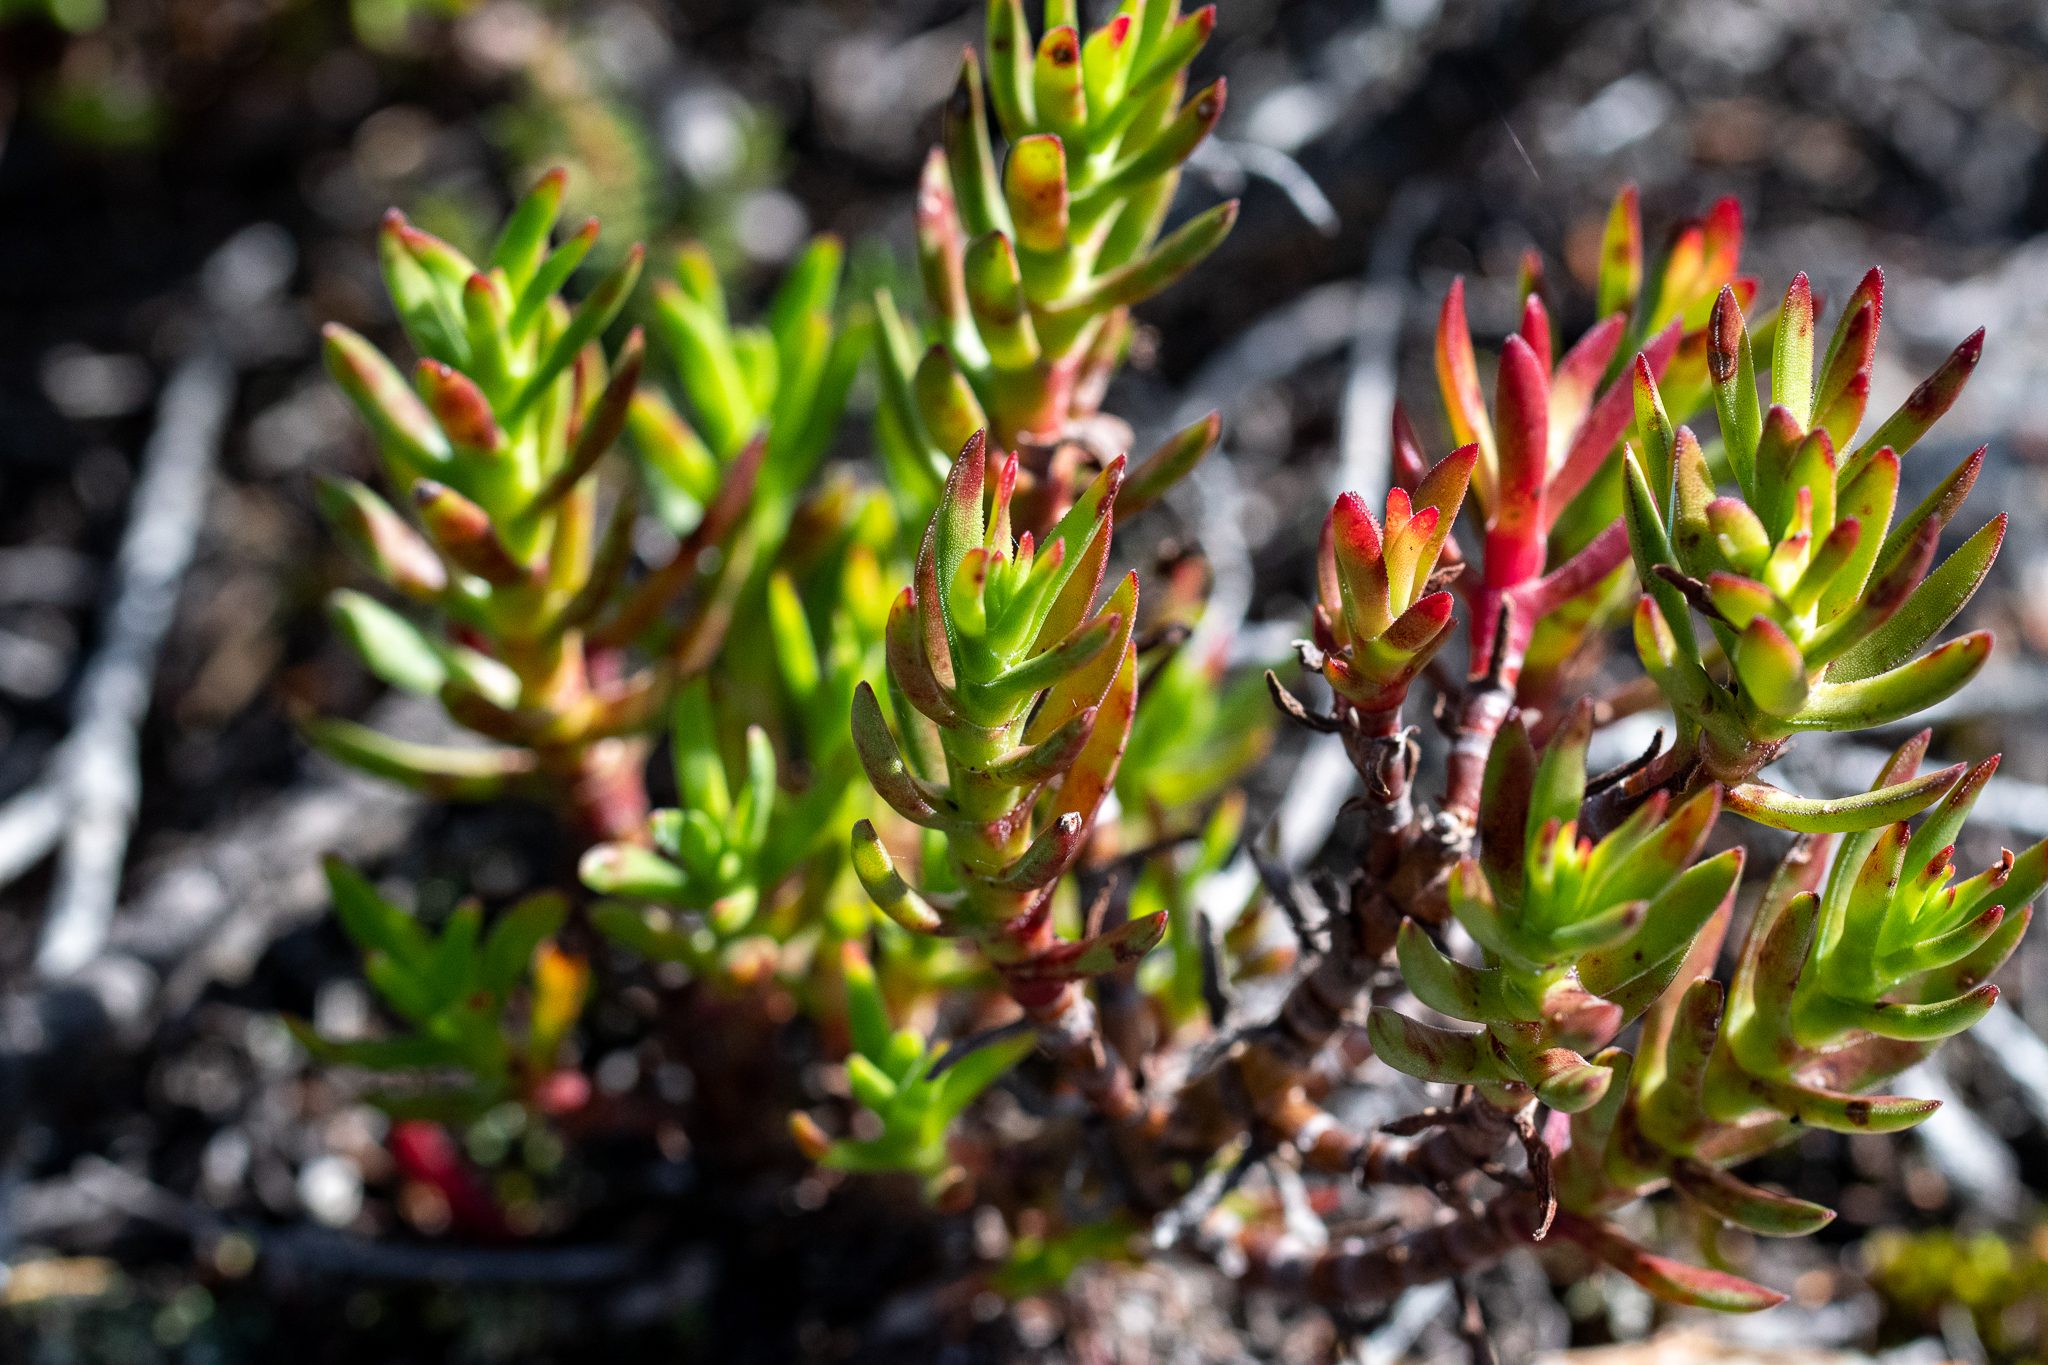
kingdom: Plantae
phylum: Tracheophyta
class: Magnoliopsida
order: Saxifragales
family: Crassulaceae
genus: Crassula
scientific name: Crassula fascicularis
